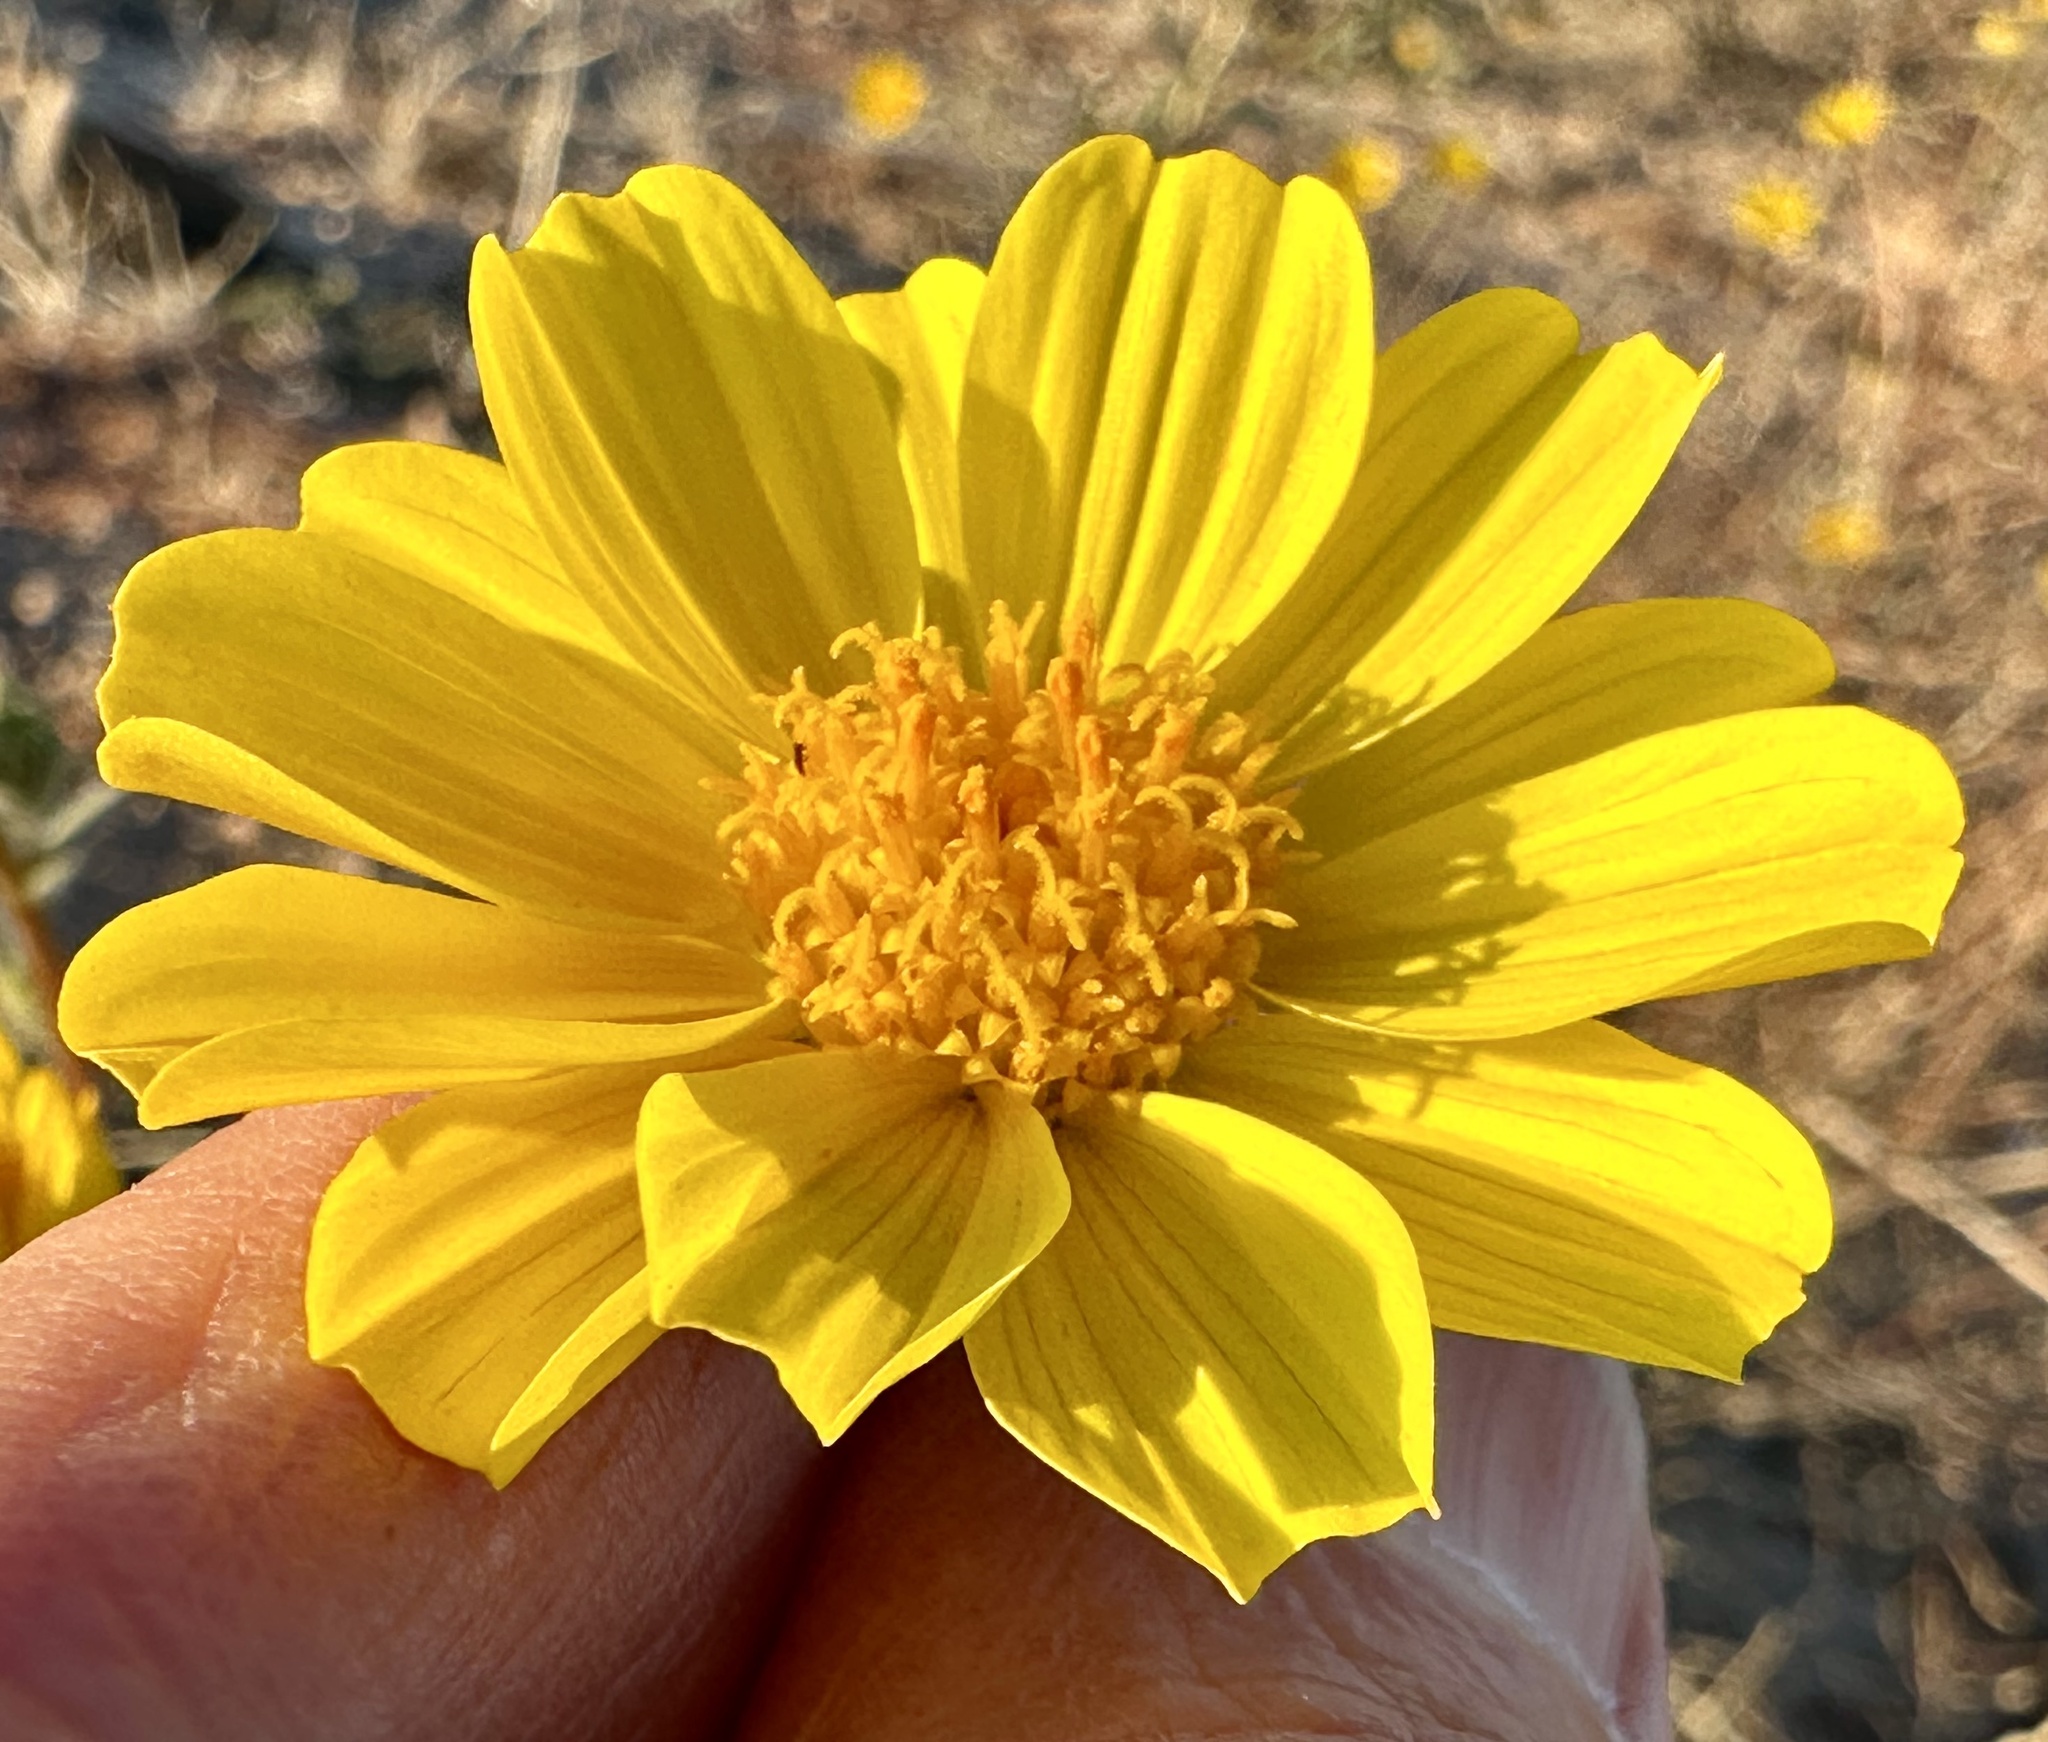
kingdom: Plantae
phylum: Tracheophyta
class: Magnoliopsida
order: Asterales
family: Asteraceae
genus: Geraea
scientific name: Geraea canescens
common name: Desert-gold
